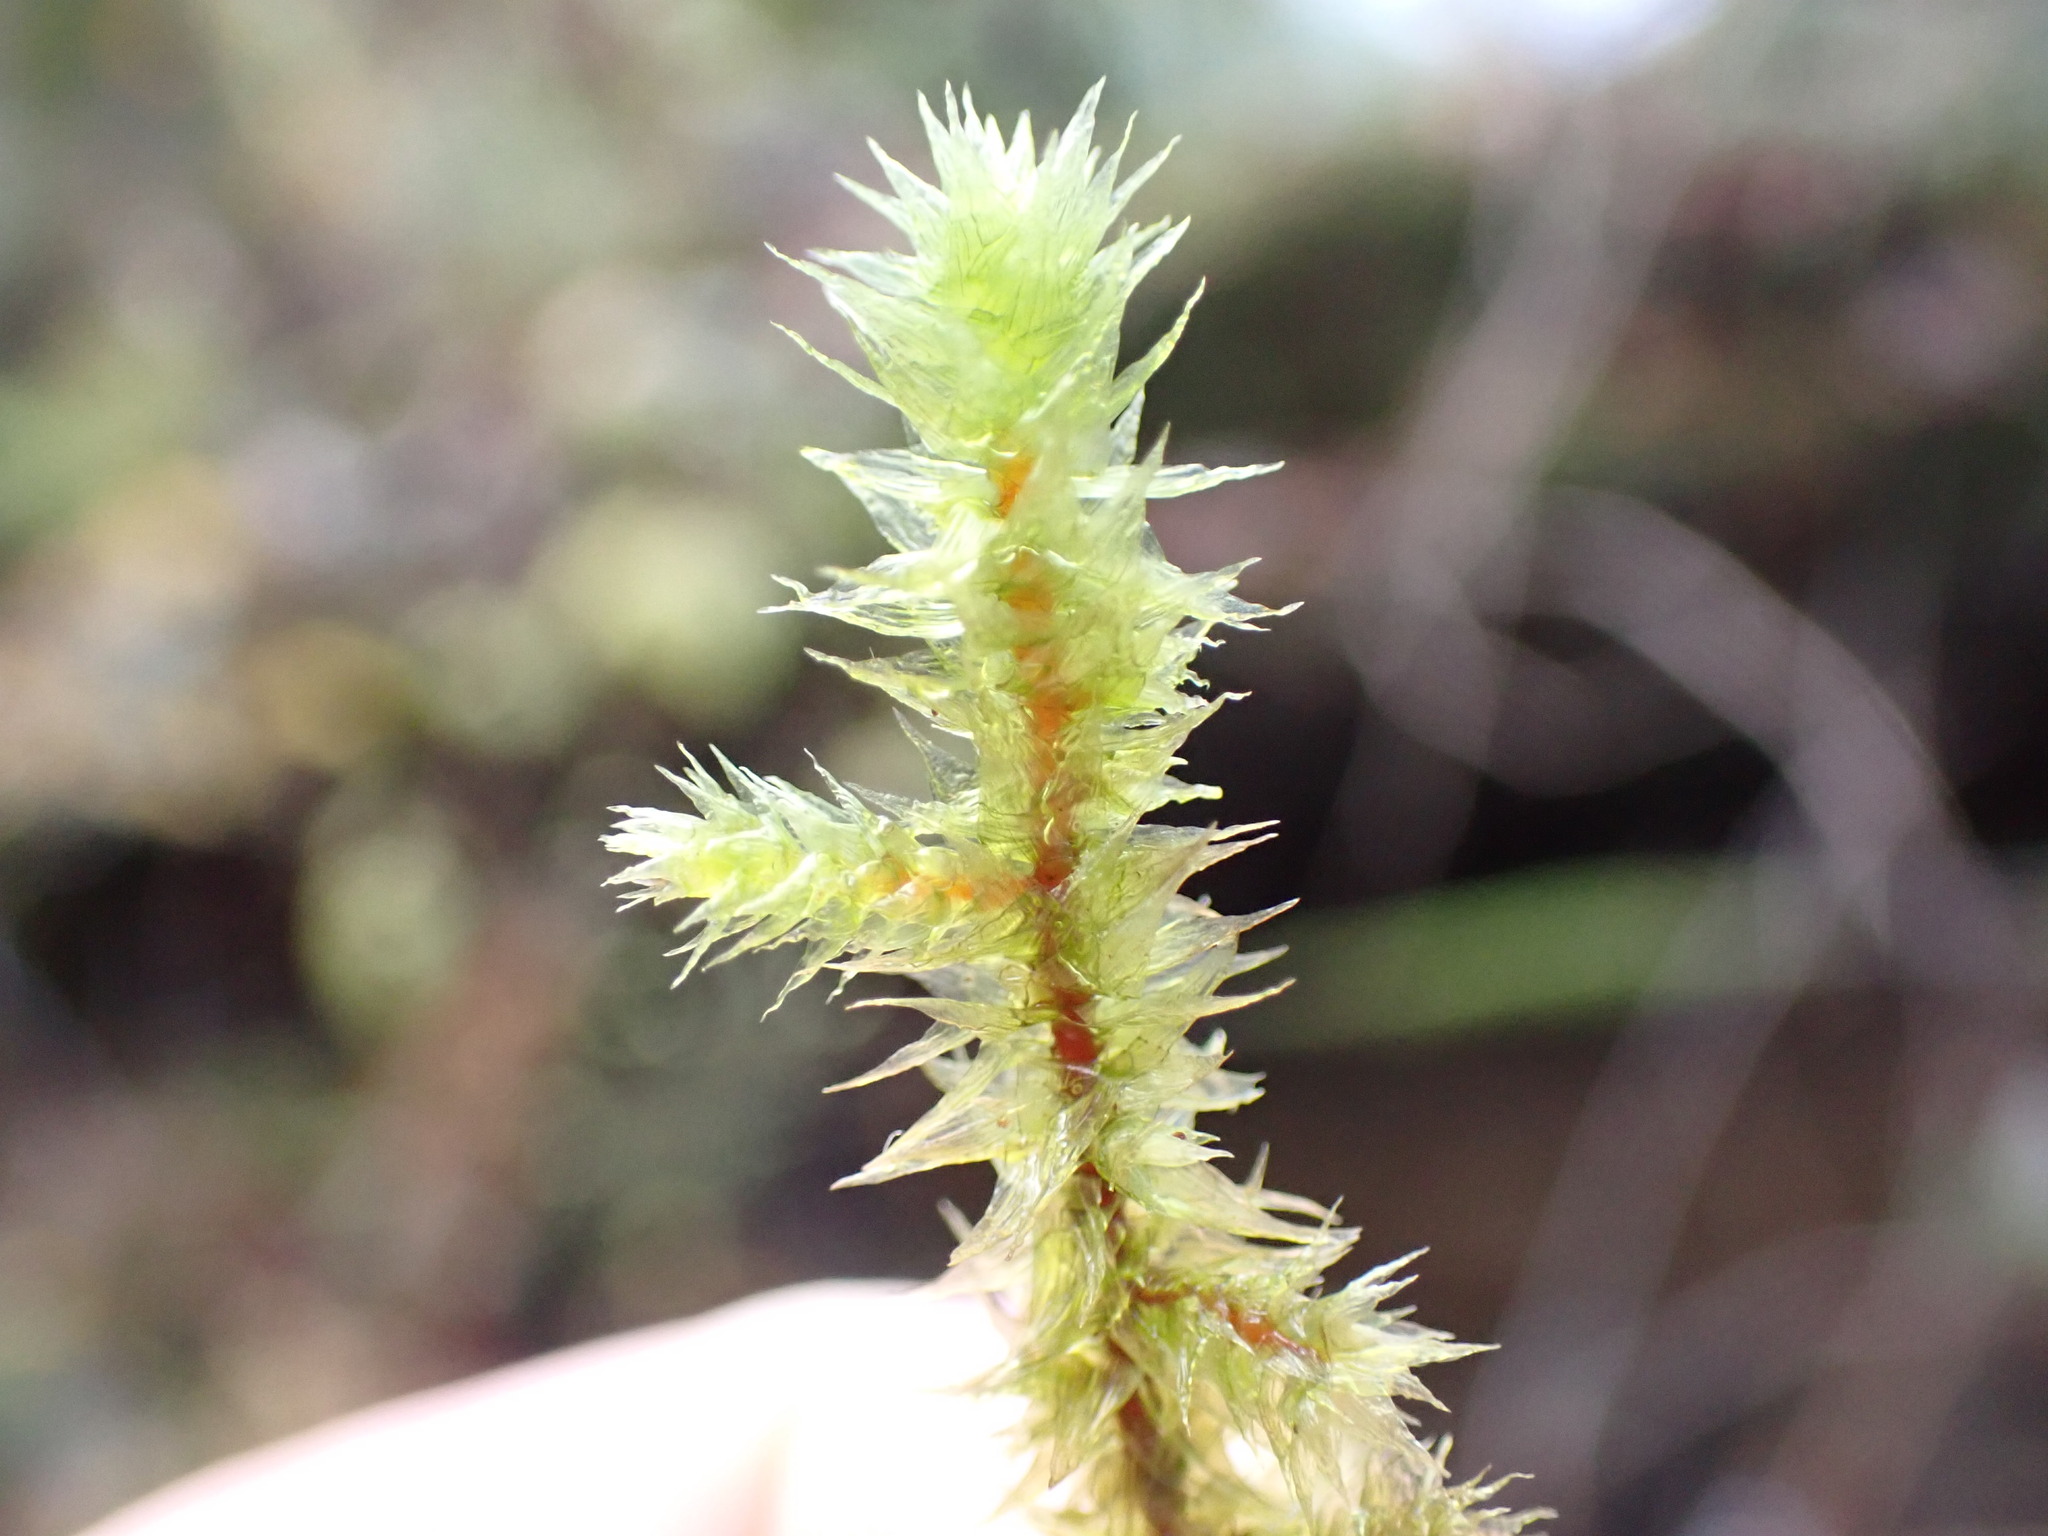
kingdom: Plantae
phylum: Bryophyta
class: Bryopsida
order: Hypnales
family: Hylocomiaceae
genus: Hylocomiadelphus
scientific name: Hylocomiadelphus triquetrus
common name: Rough goose neck moss
